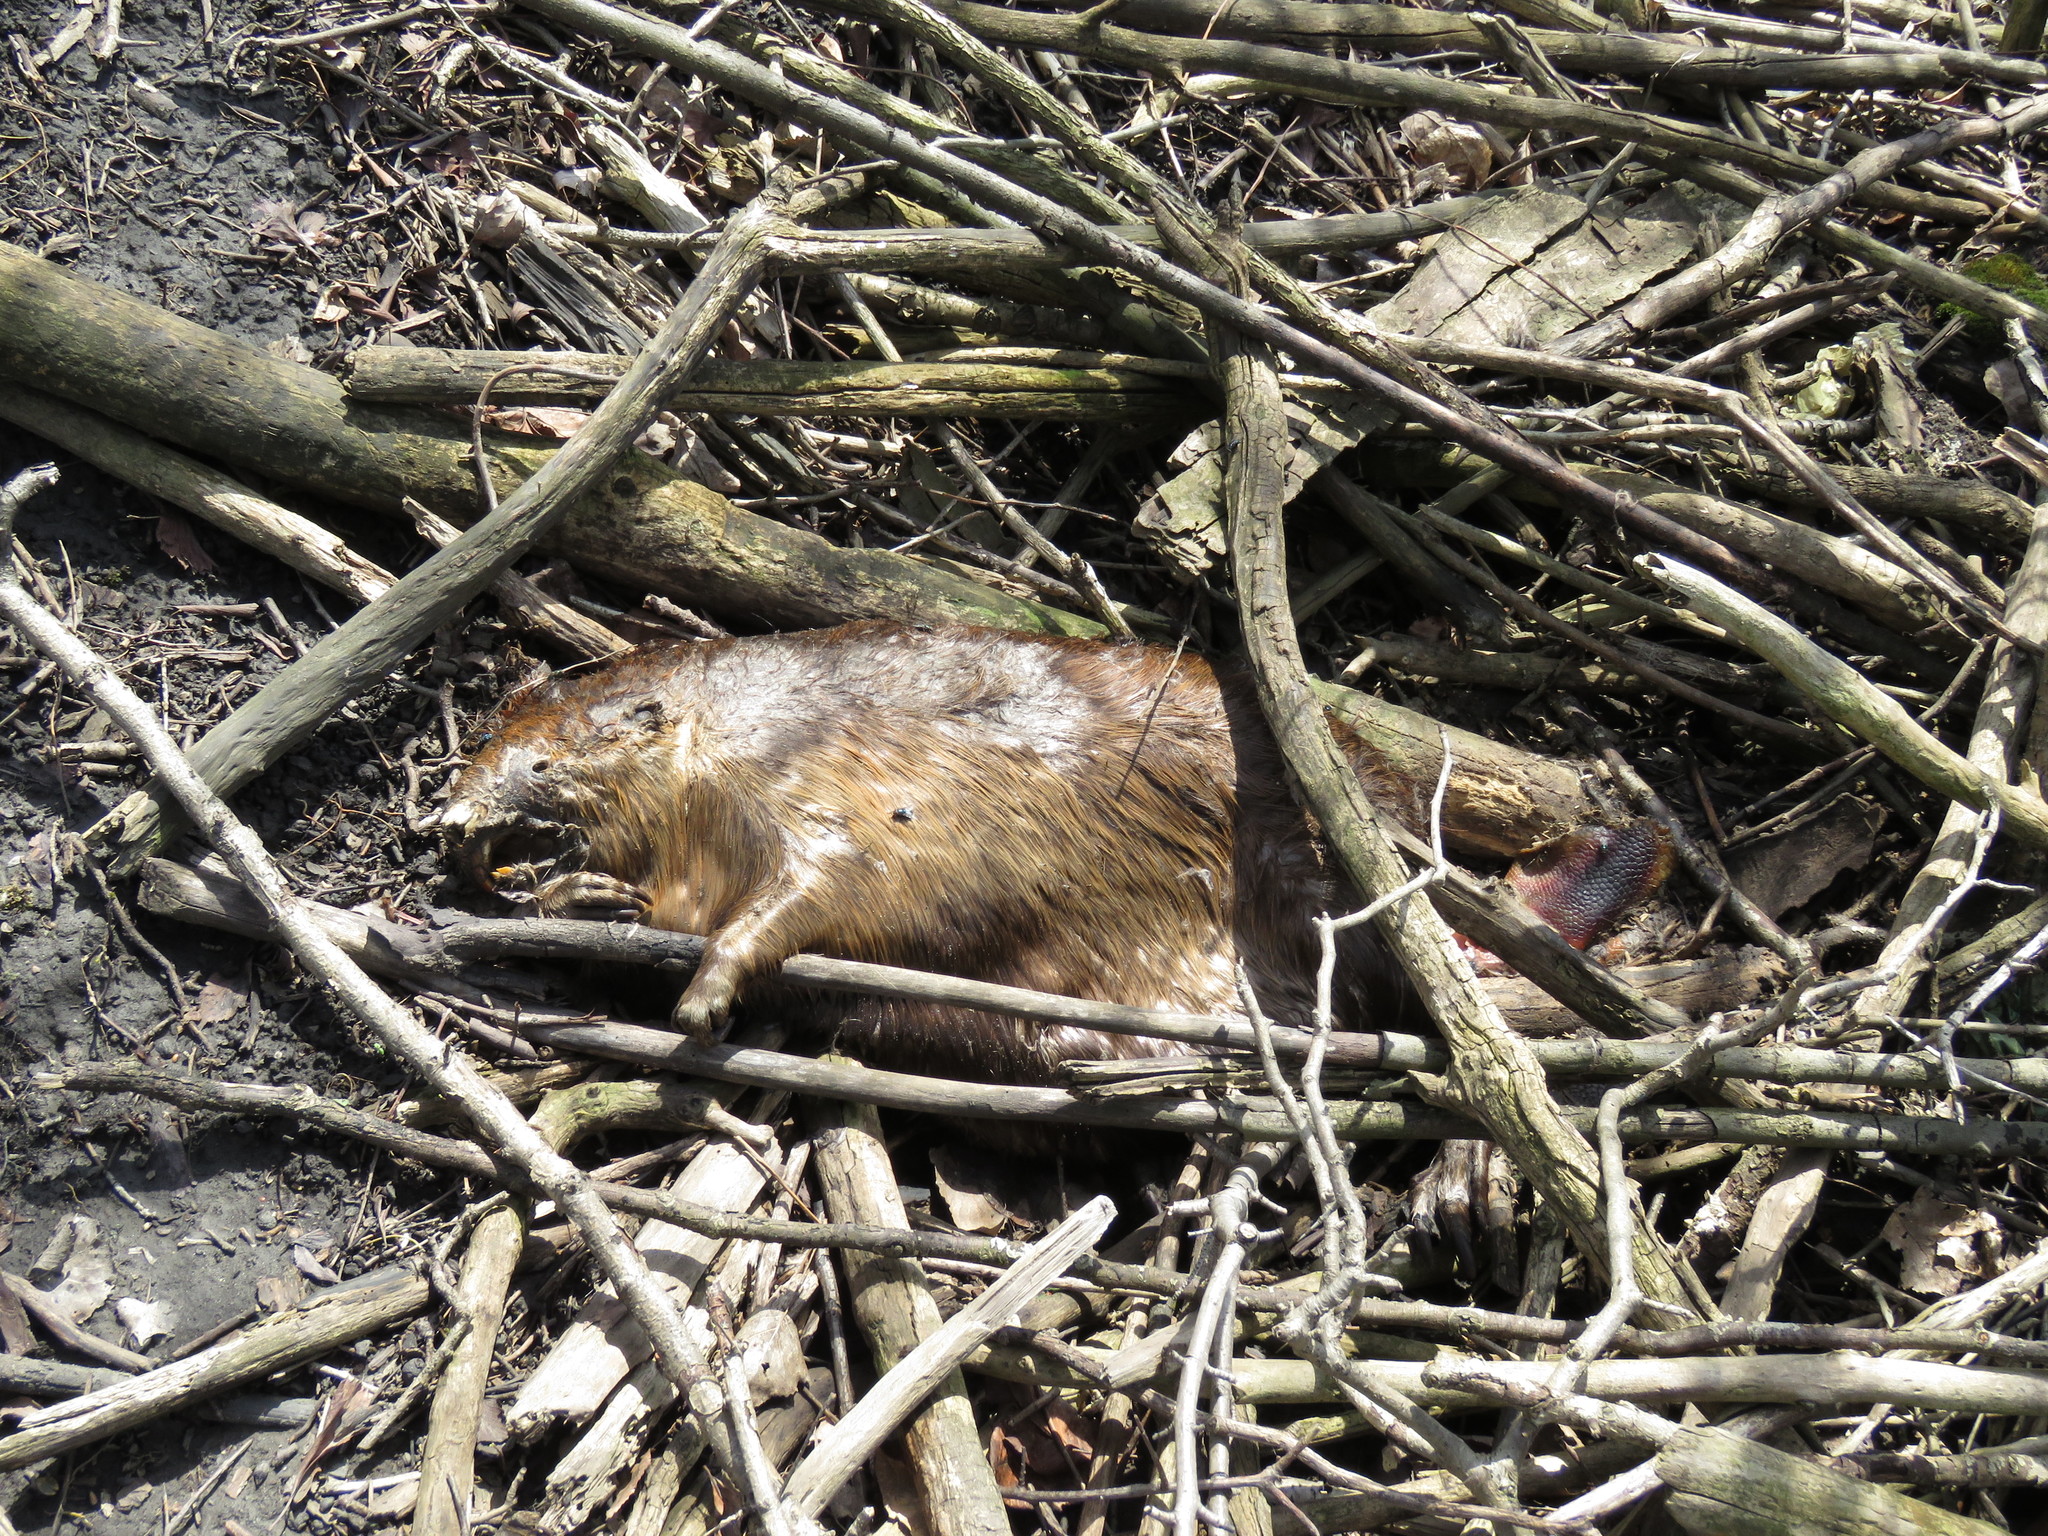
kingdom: Animalia
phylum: Chordata
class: Mammalia
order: Rodentia
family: Castoridae
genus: Castor
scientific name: Castor canadensis
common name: American beaver
